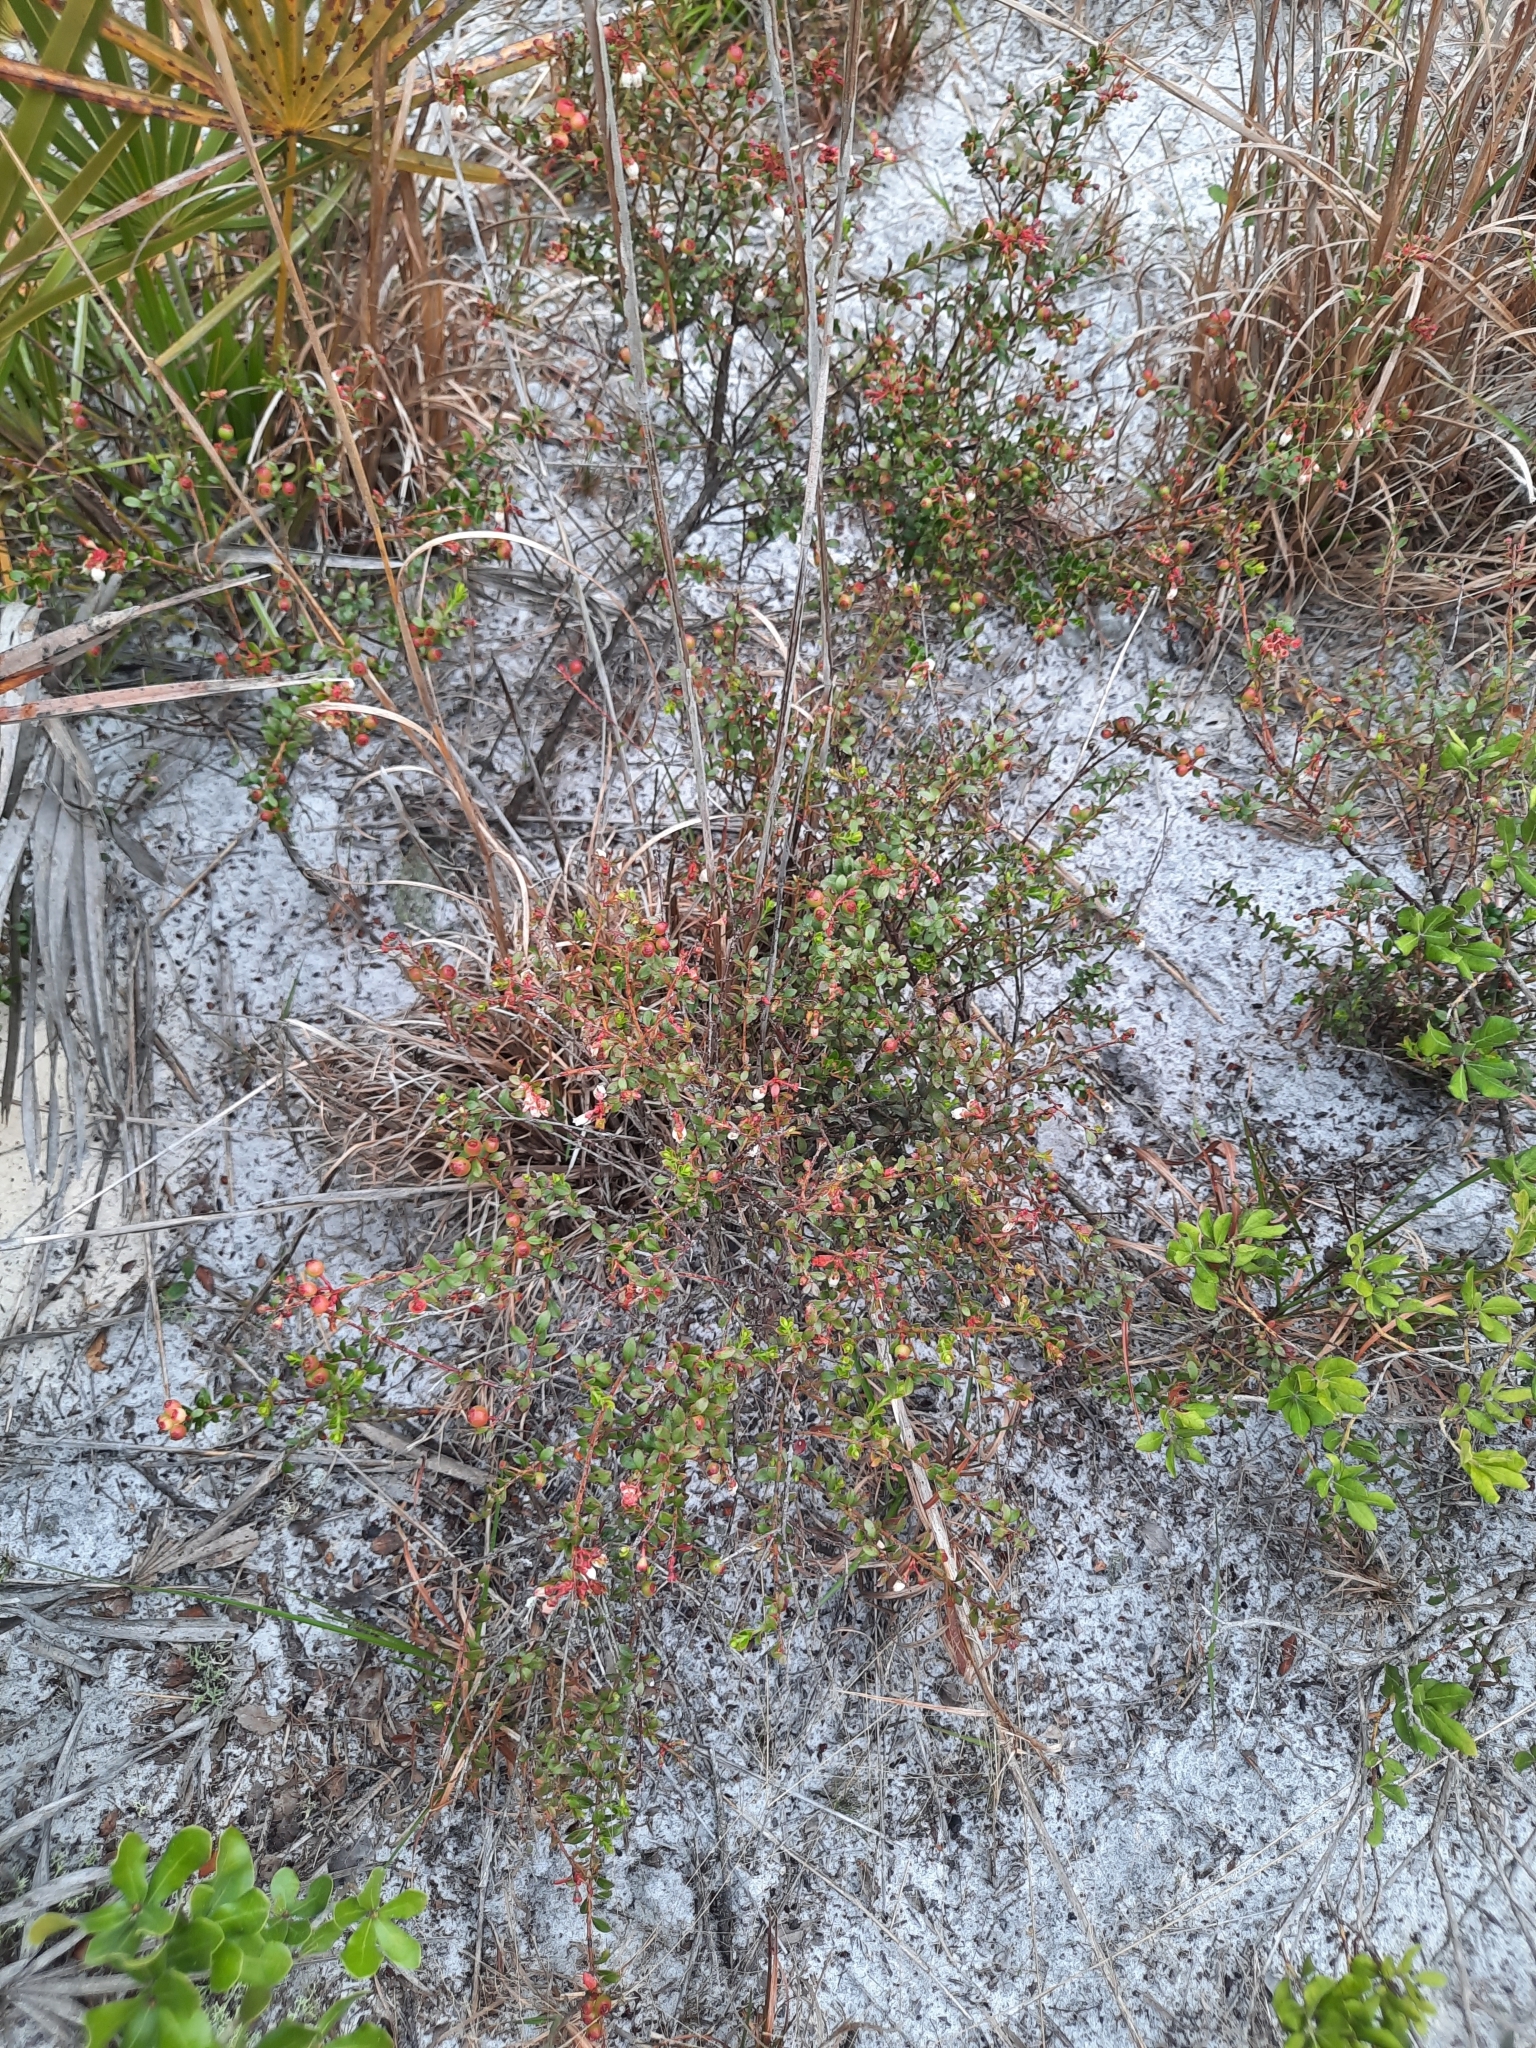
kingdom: Plantae
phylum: Tracheophyta
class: Magnoliopsida
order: Ericales
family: Ericaceae
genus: Vaccinium
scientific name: Vaccinium myrsinites
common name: Evergreen blueberry
